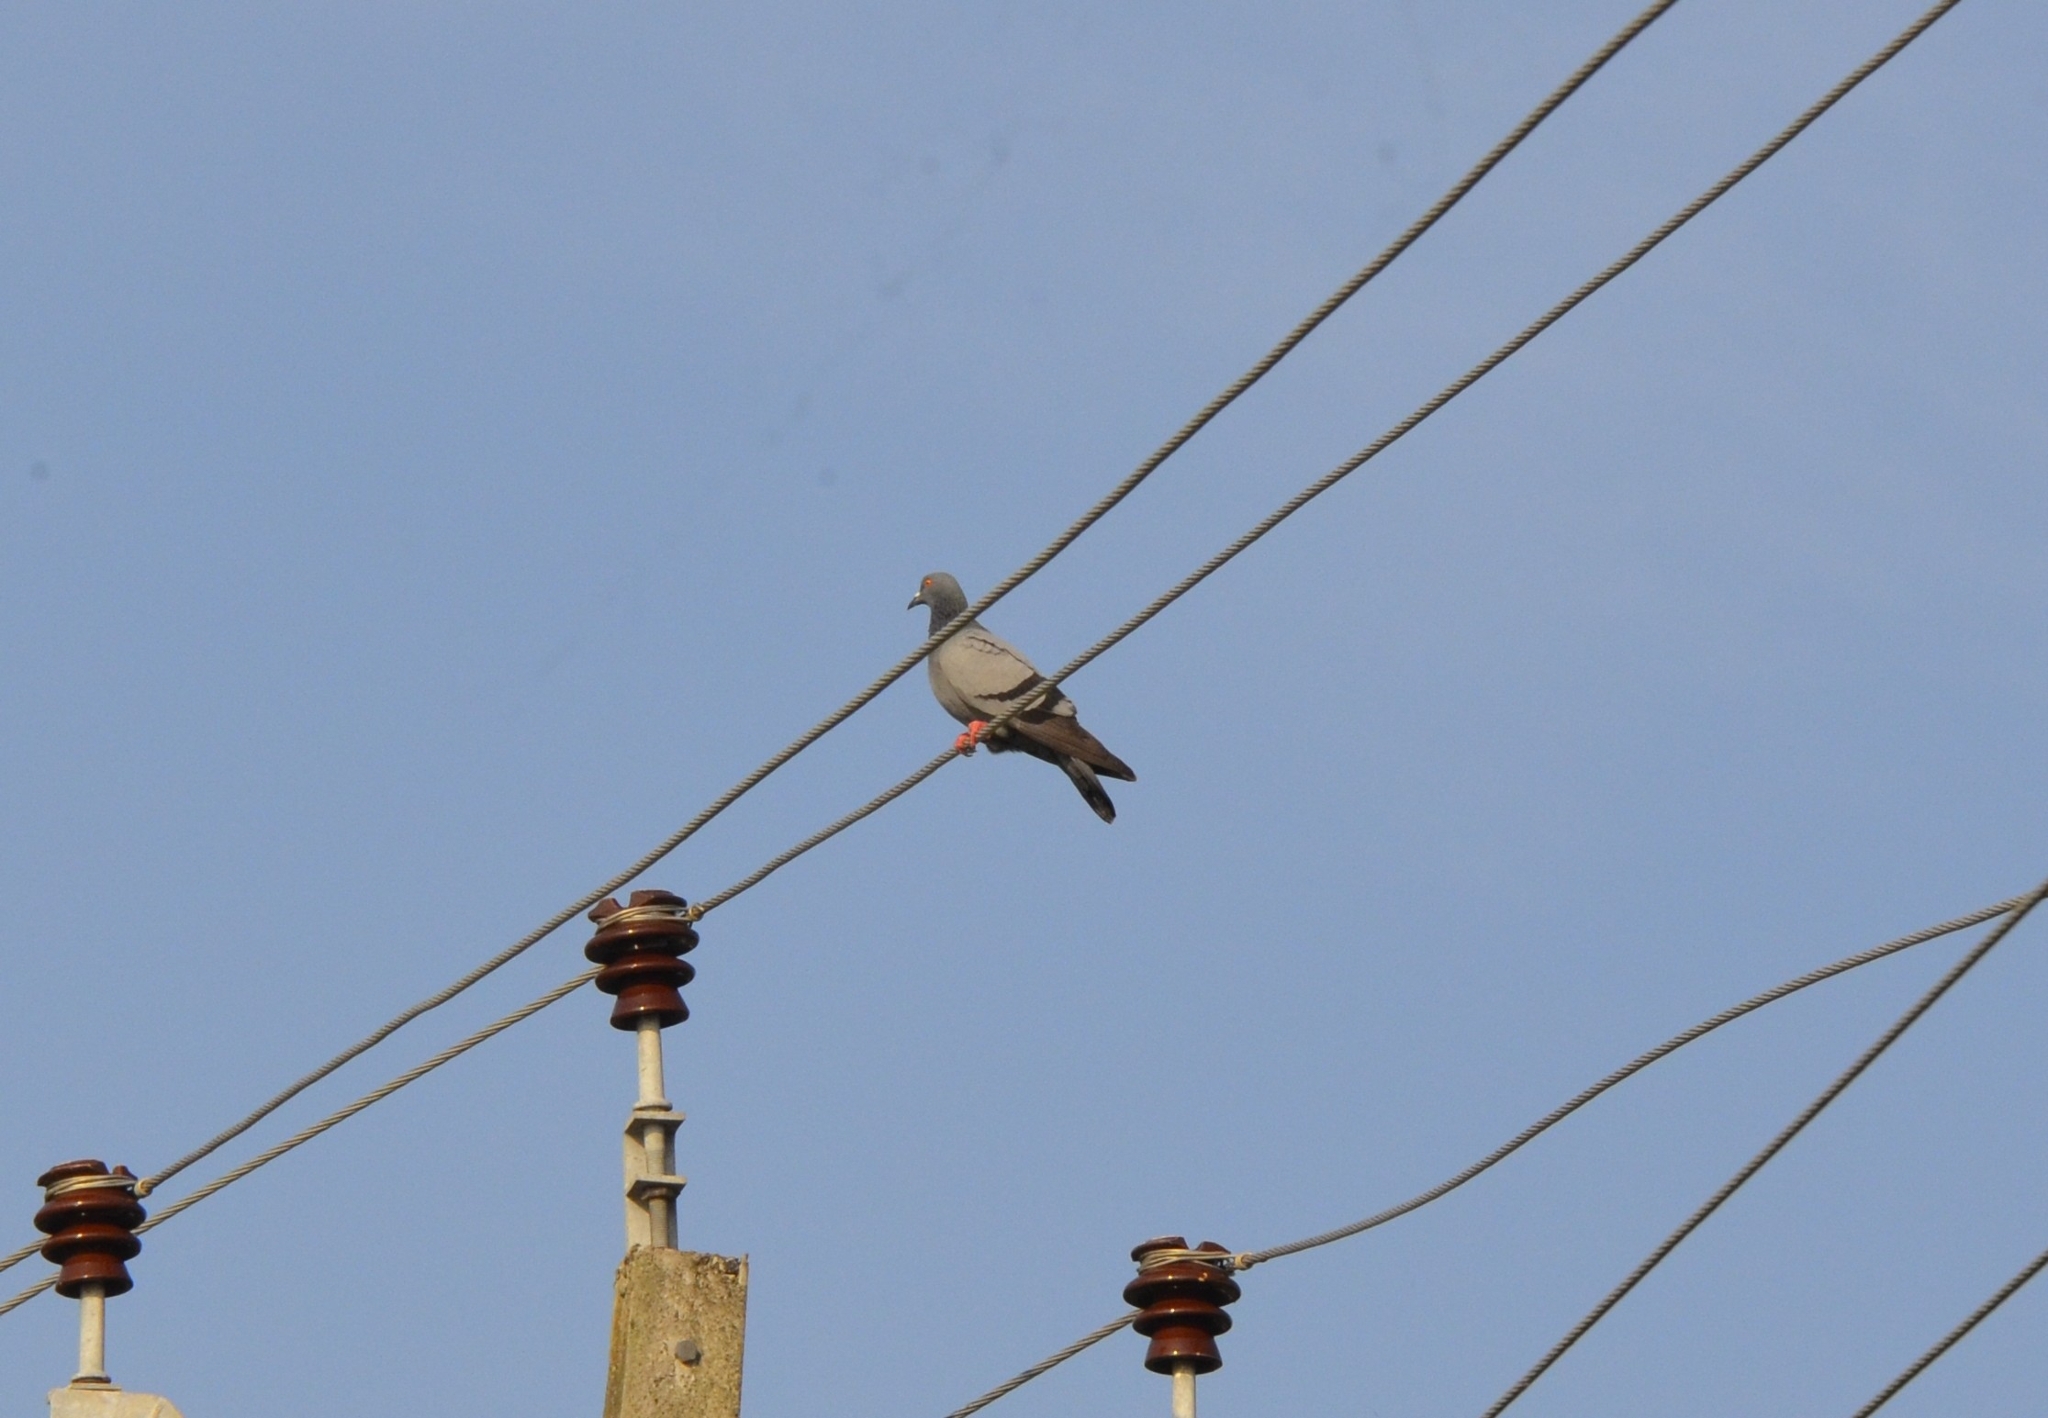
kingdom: Animalia
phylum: Chordata
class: Aves
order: Columbiformes
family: Columbidae
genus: Columba
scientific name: Columba livia
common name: Rock pigeon
